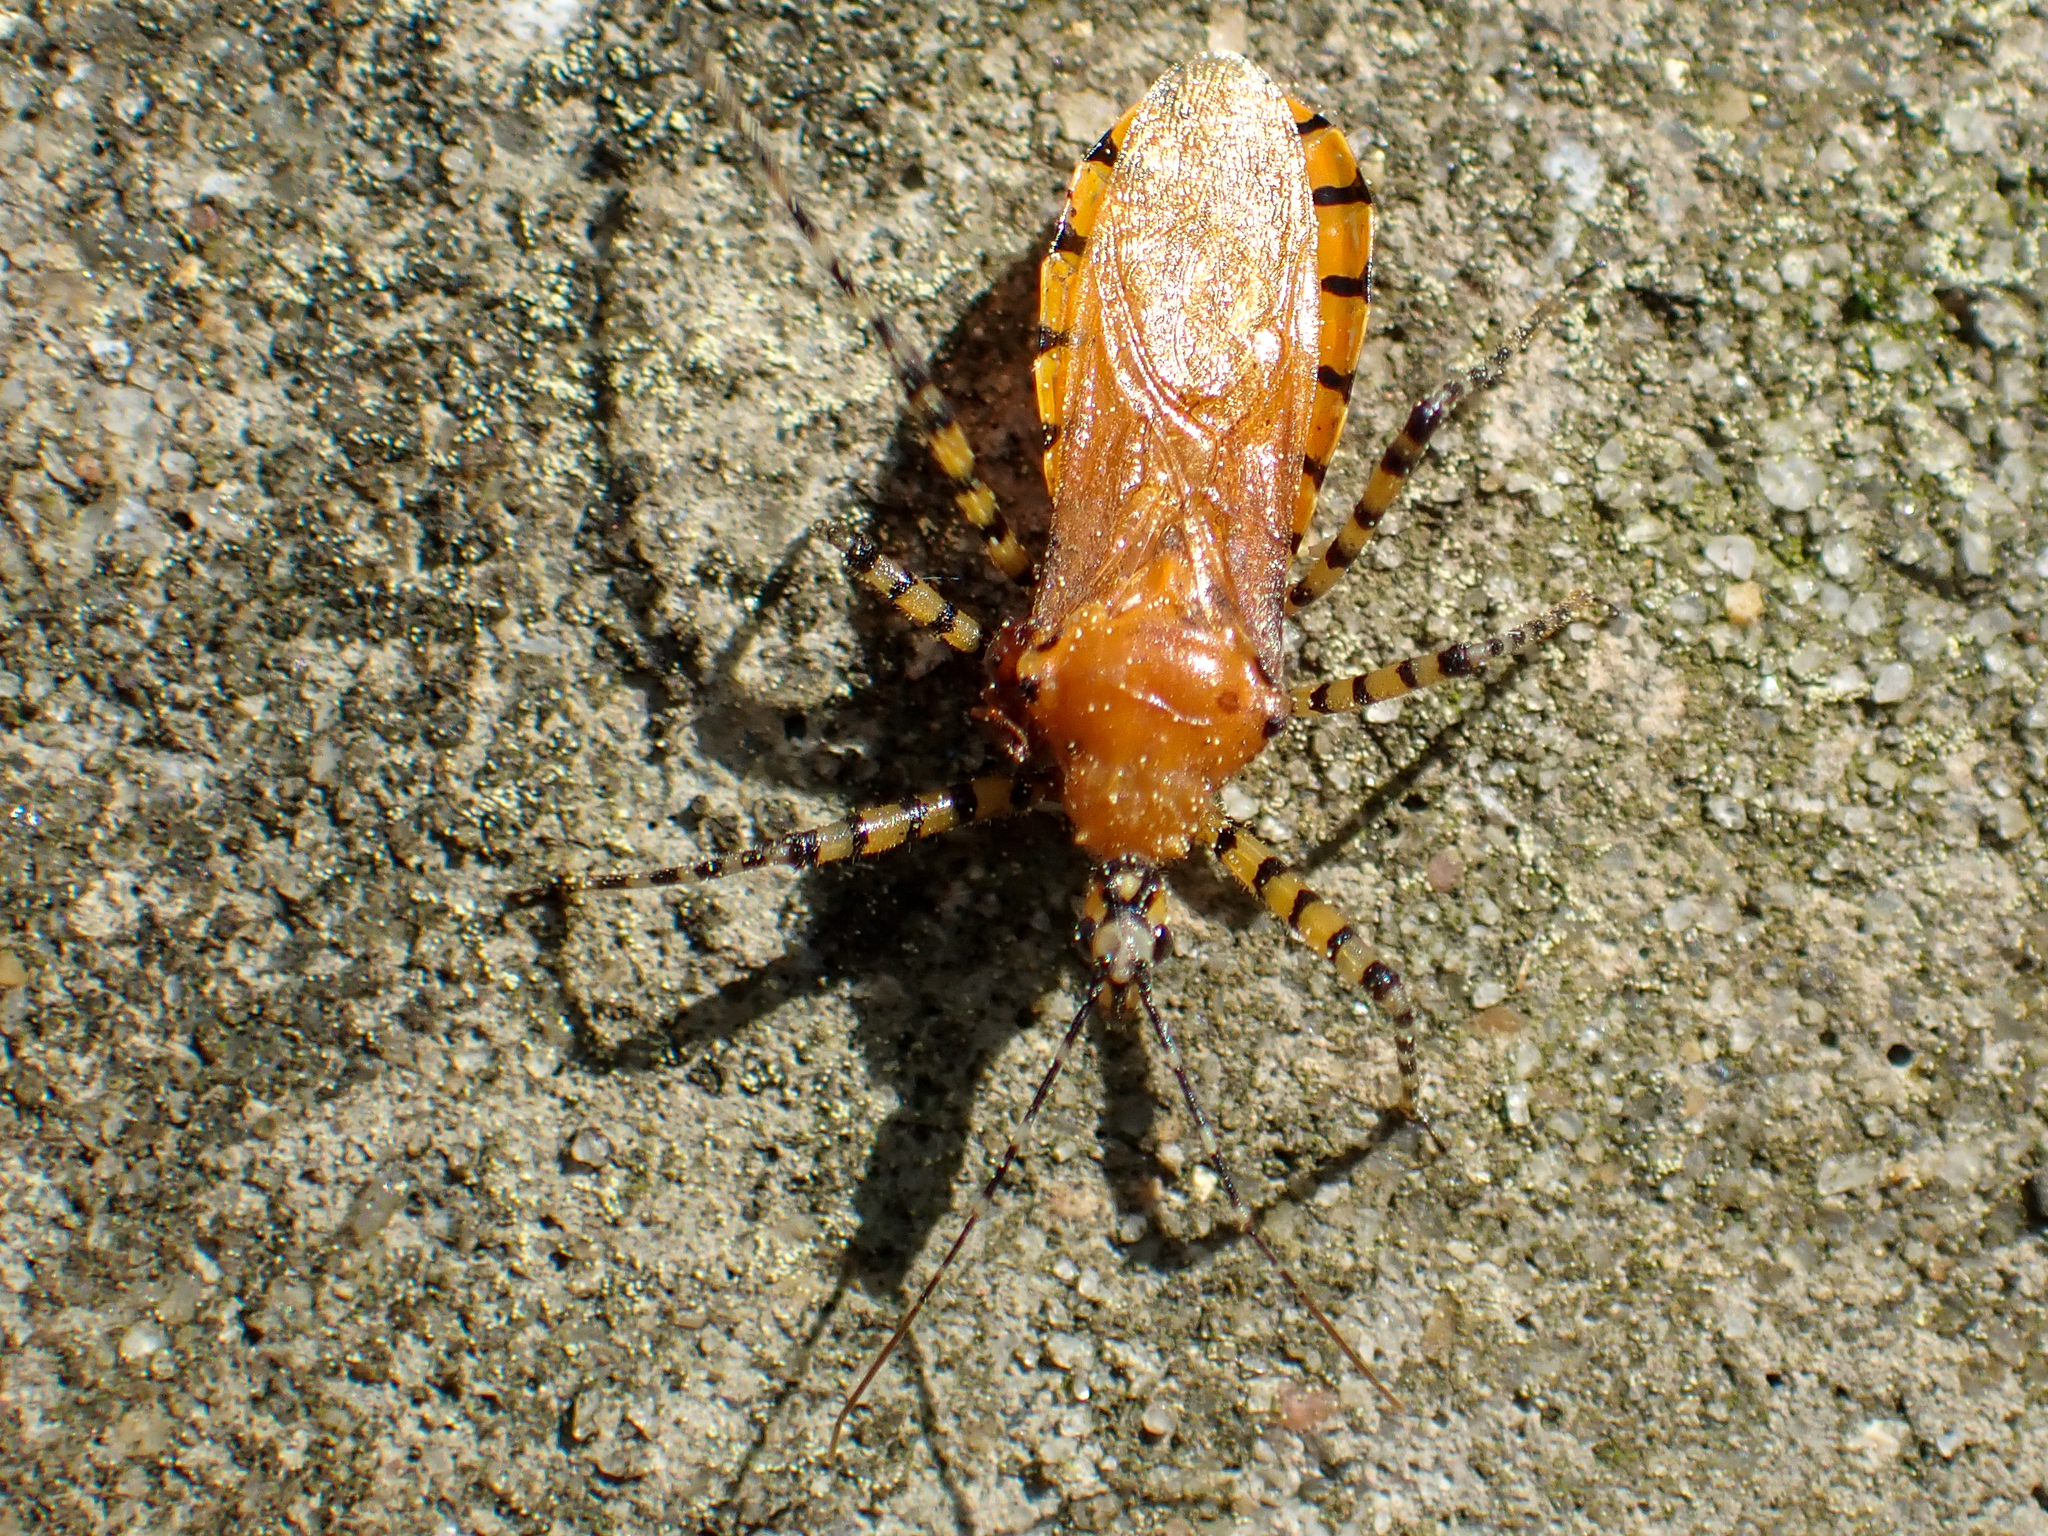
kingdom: Animalia
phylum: Arthropoda
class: Insecta
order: Hemiptera
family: Reduviidae
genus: Pselliopus
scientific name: Pselliopus barberi
